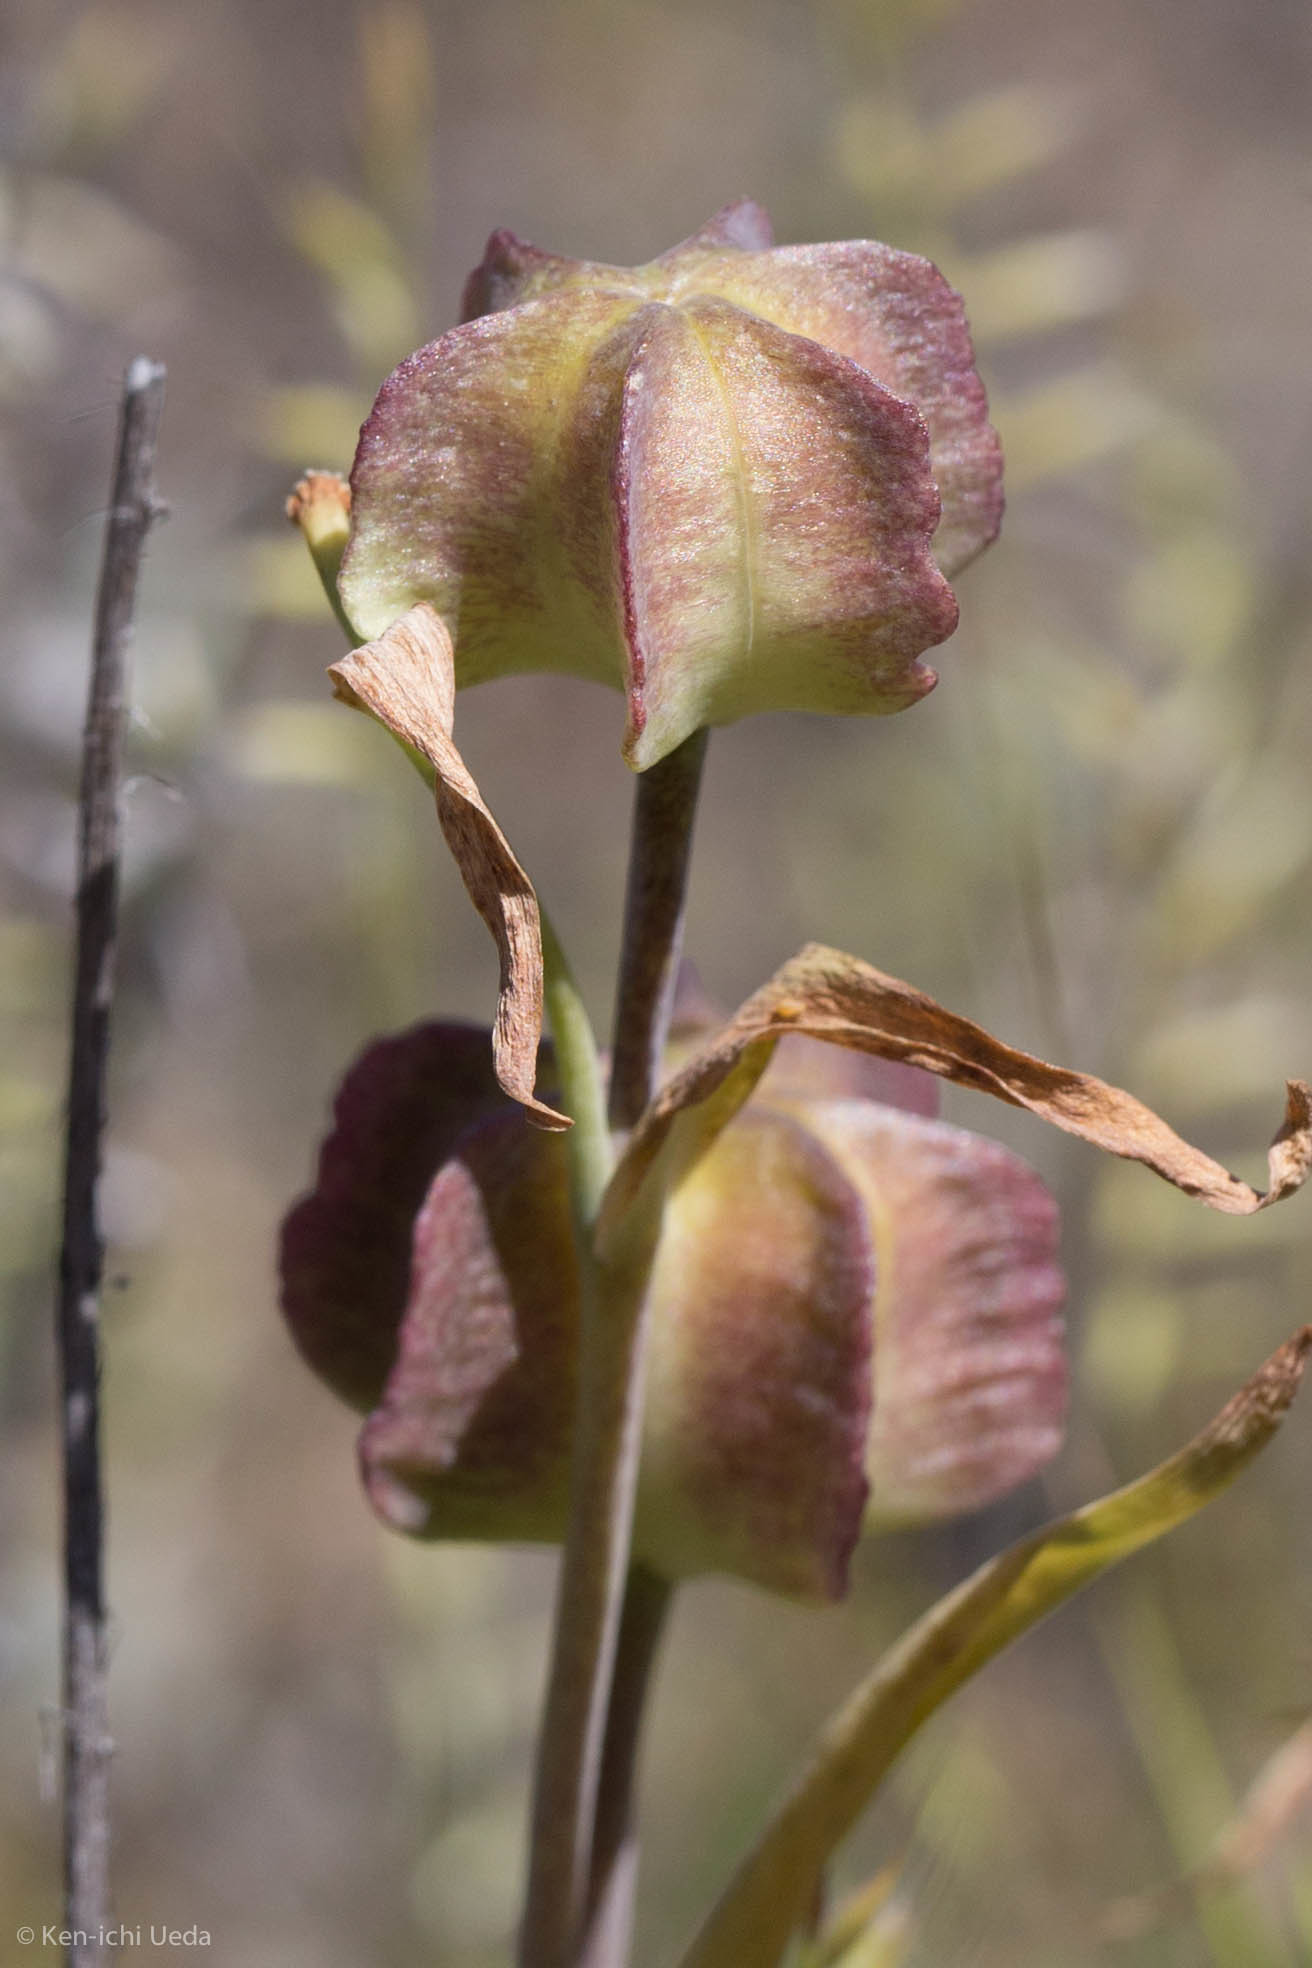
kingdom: Plantae
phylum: Tracheophyta
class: Liliopsida
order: Liliales
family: Liliaceae
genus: Fritillaria
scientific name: Fritillaria affinis
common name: Ojai fritillary
